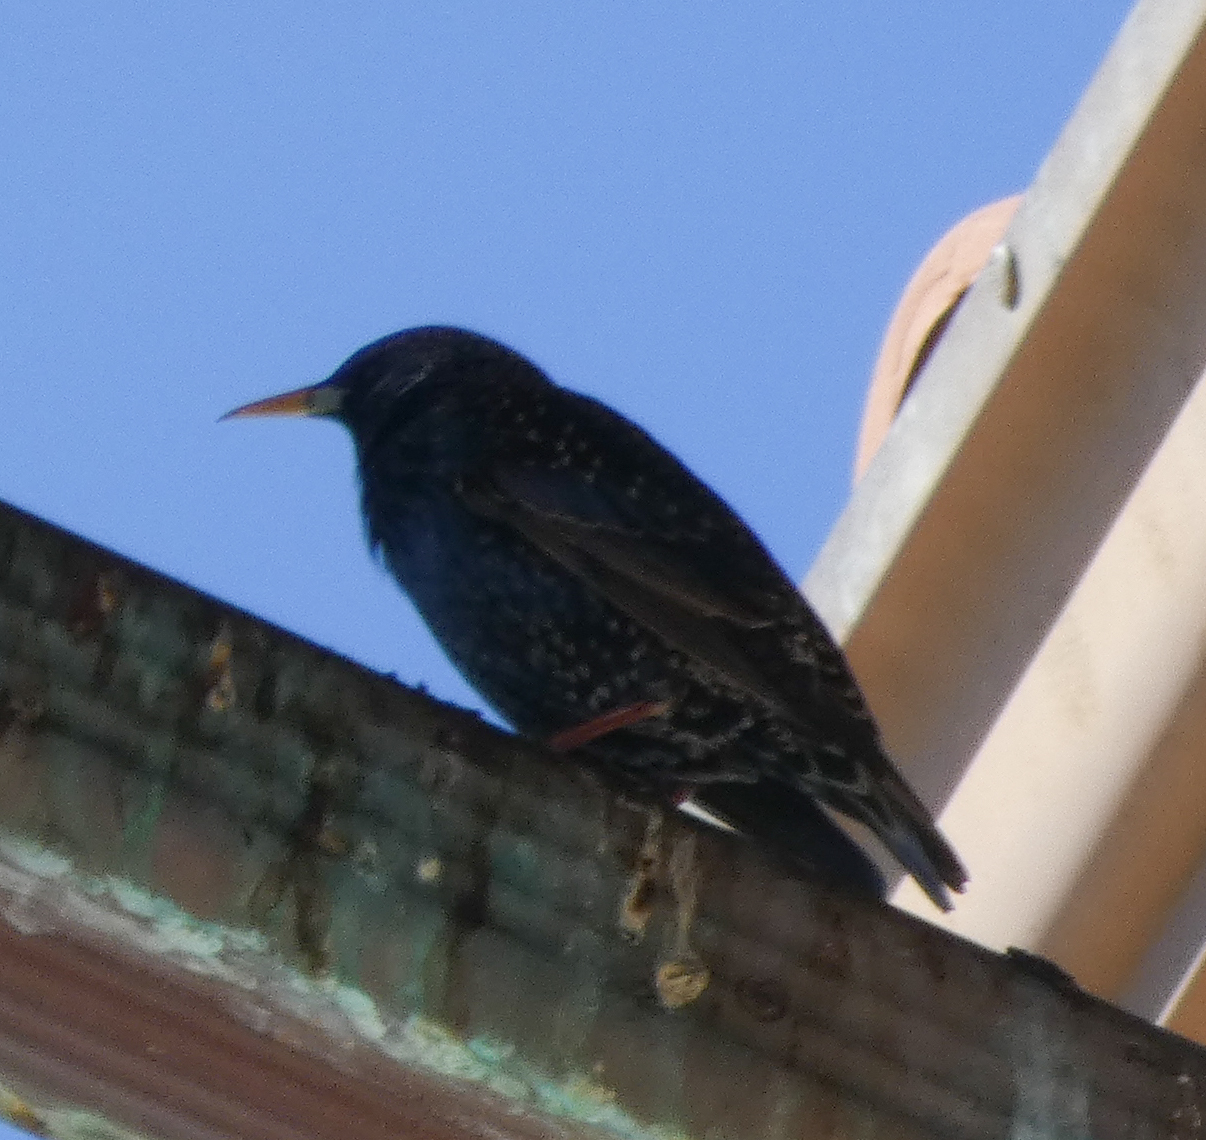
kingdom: Animalia
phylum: Chordata
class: Aves
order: Passeriformes
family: Sturnidae
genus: Sturnus
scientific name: Sturnus vulgaris
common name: Common starling
